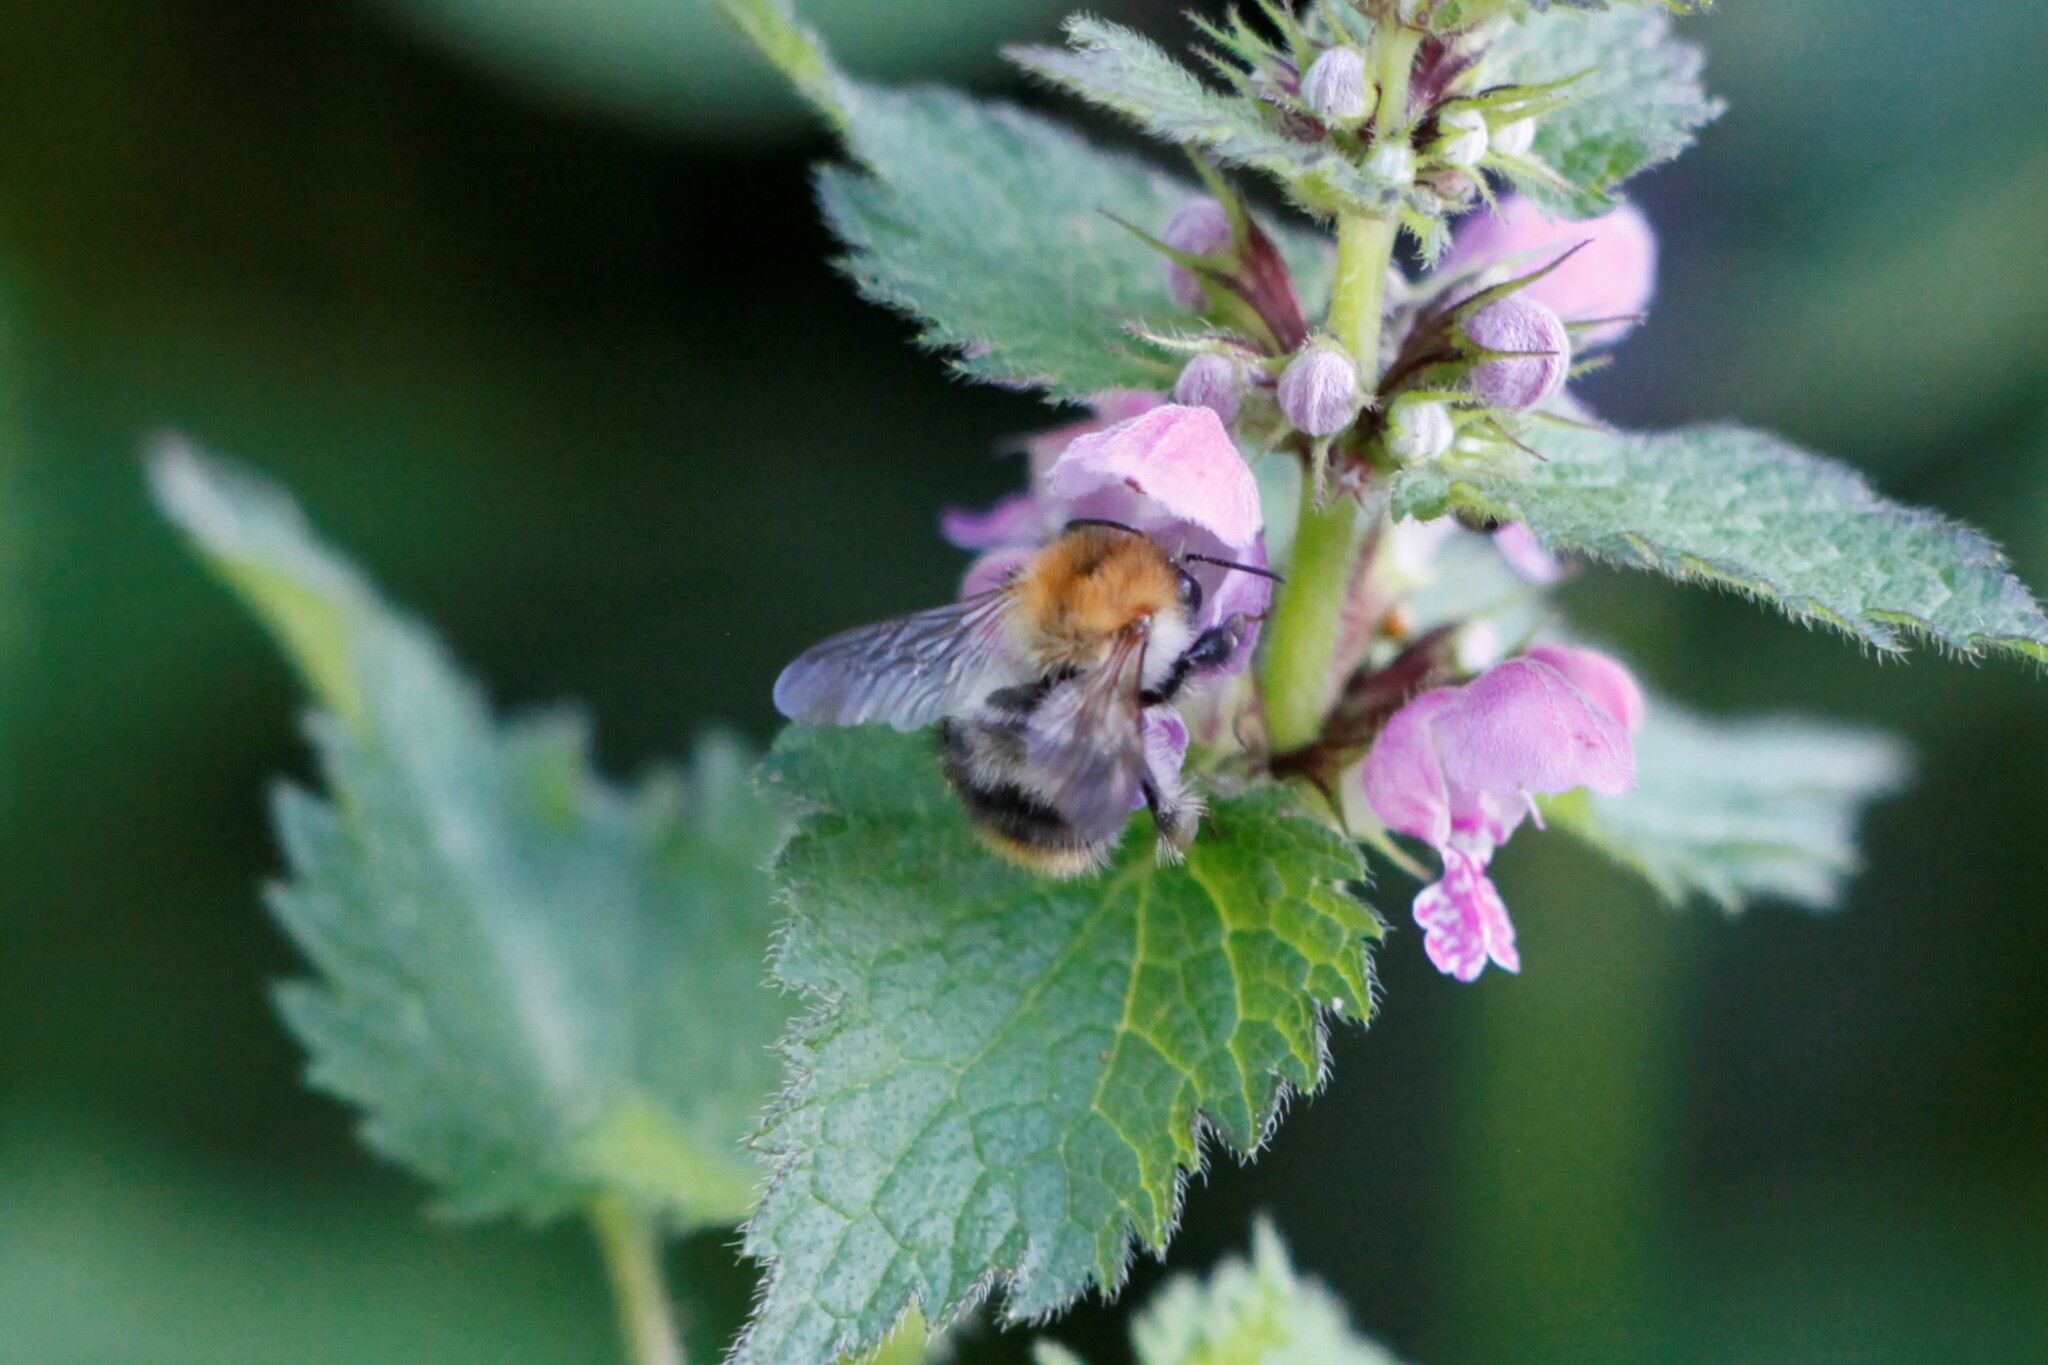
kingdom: Animalia
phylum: Arthropoda
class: Insecta
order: Hymenoptera
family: Apidae
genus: Bombus
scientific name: Bombus pascuorum
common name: Common carder bee
